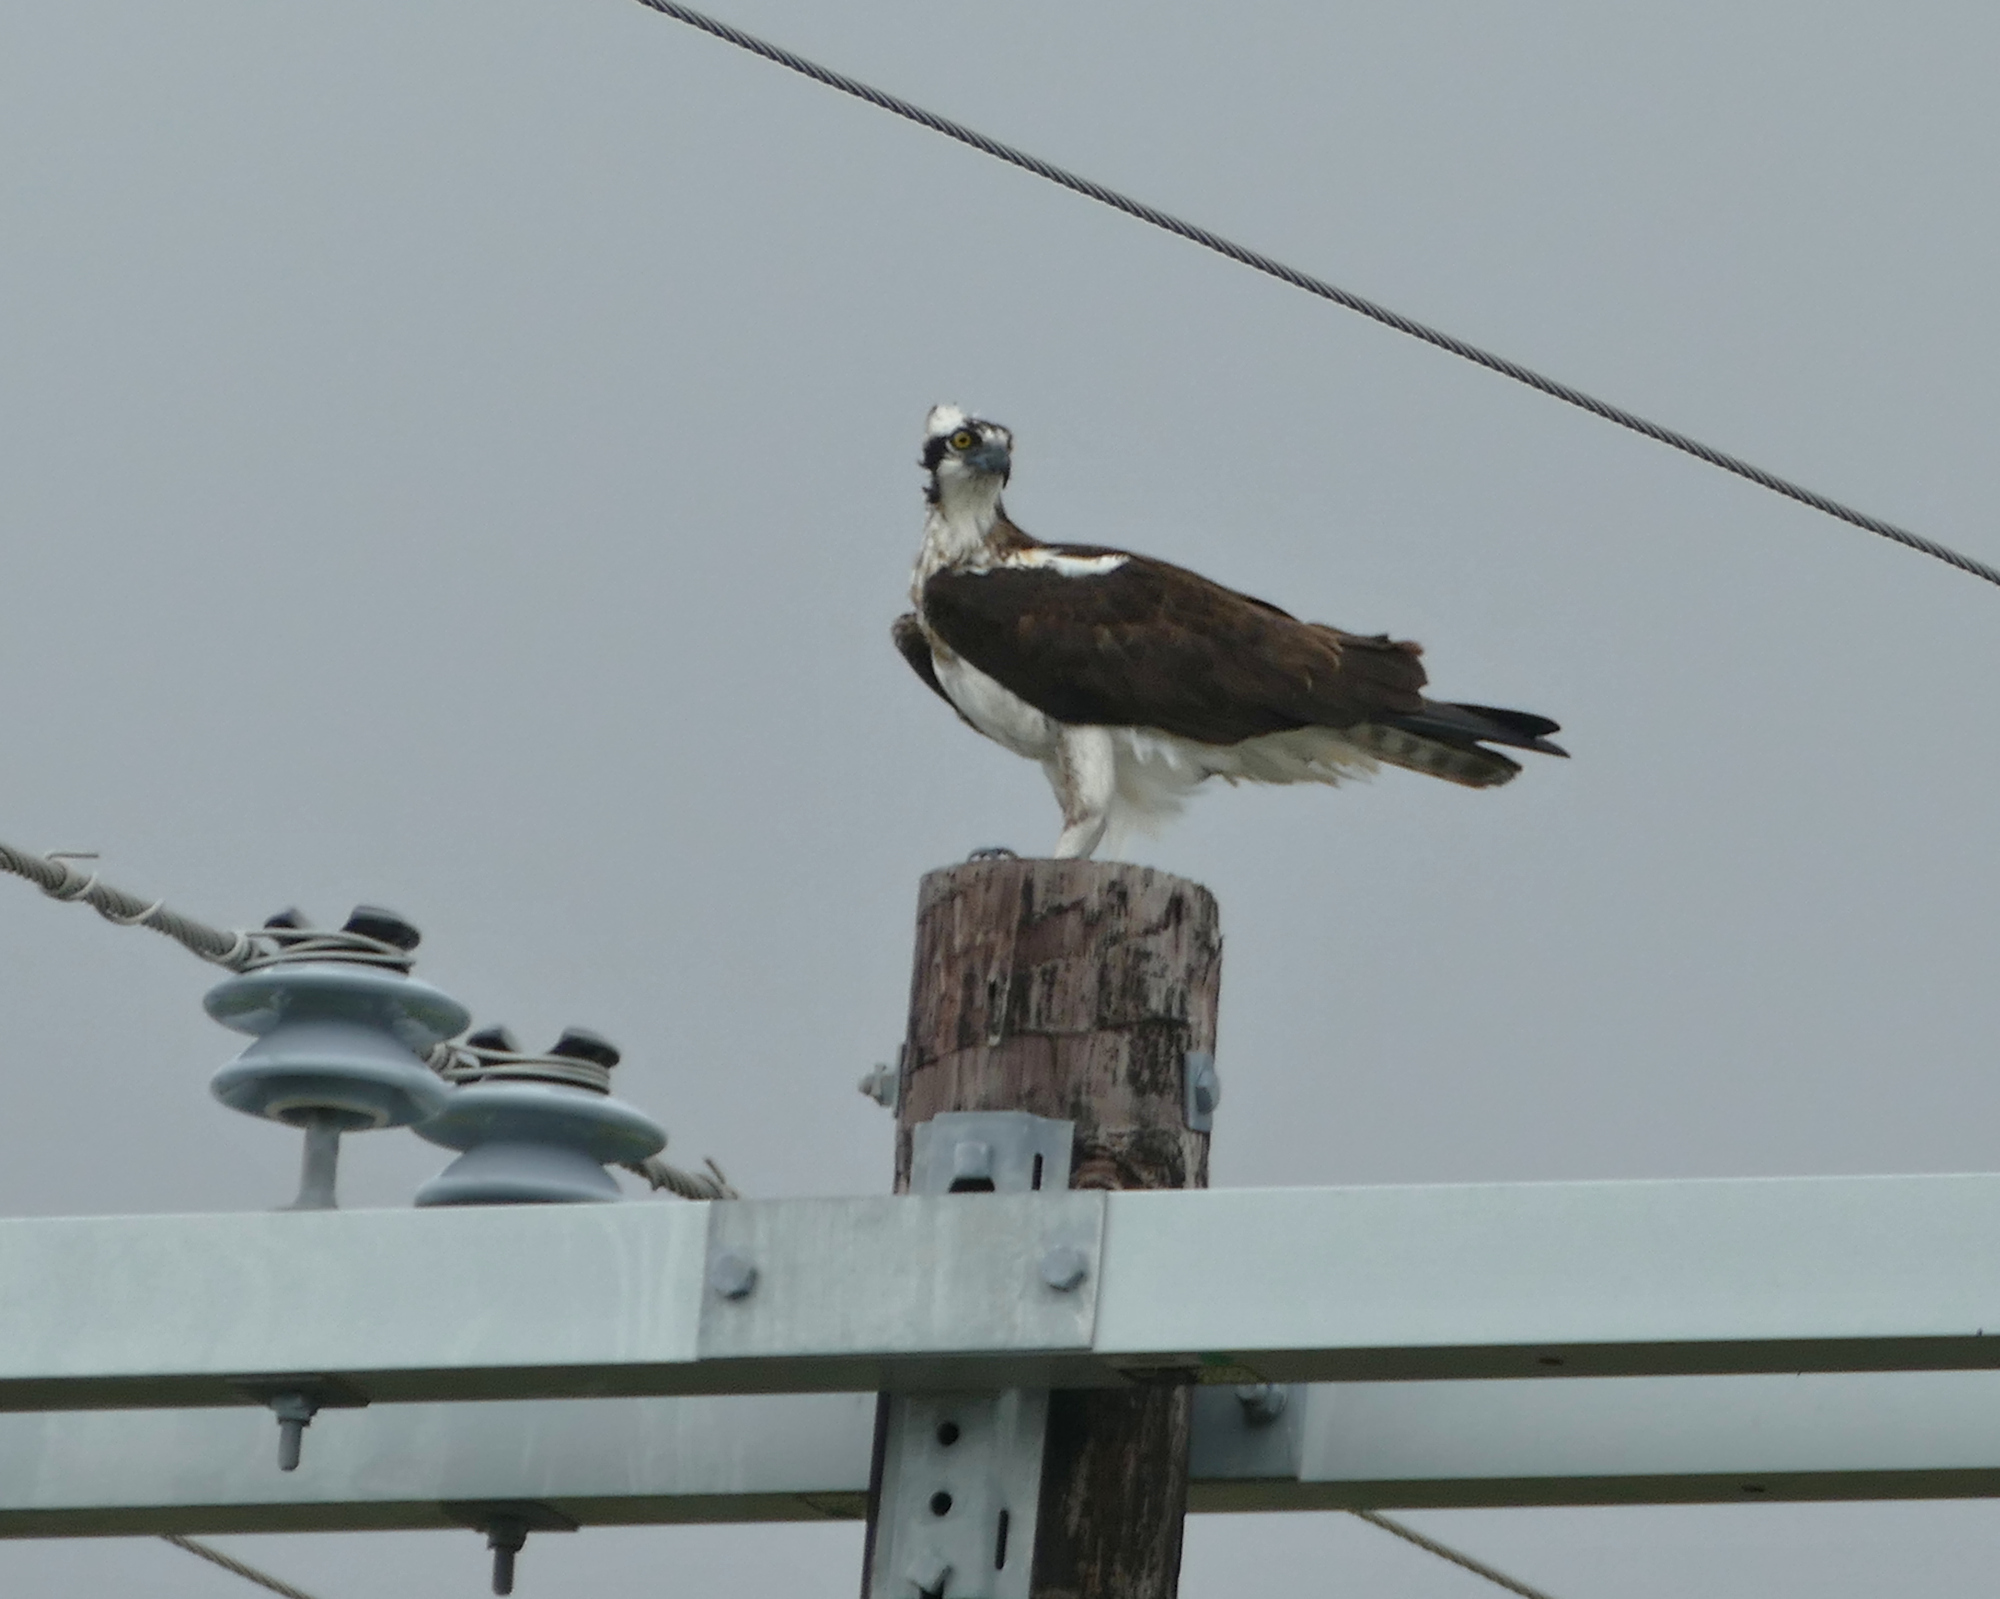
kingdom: Animalia
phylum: Chordata
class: Aves
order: Accipitriformes
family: Pandionidae
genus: Pandion
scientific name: Pandion haliaetus
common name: Osprey
